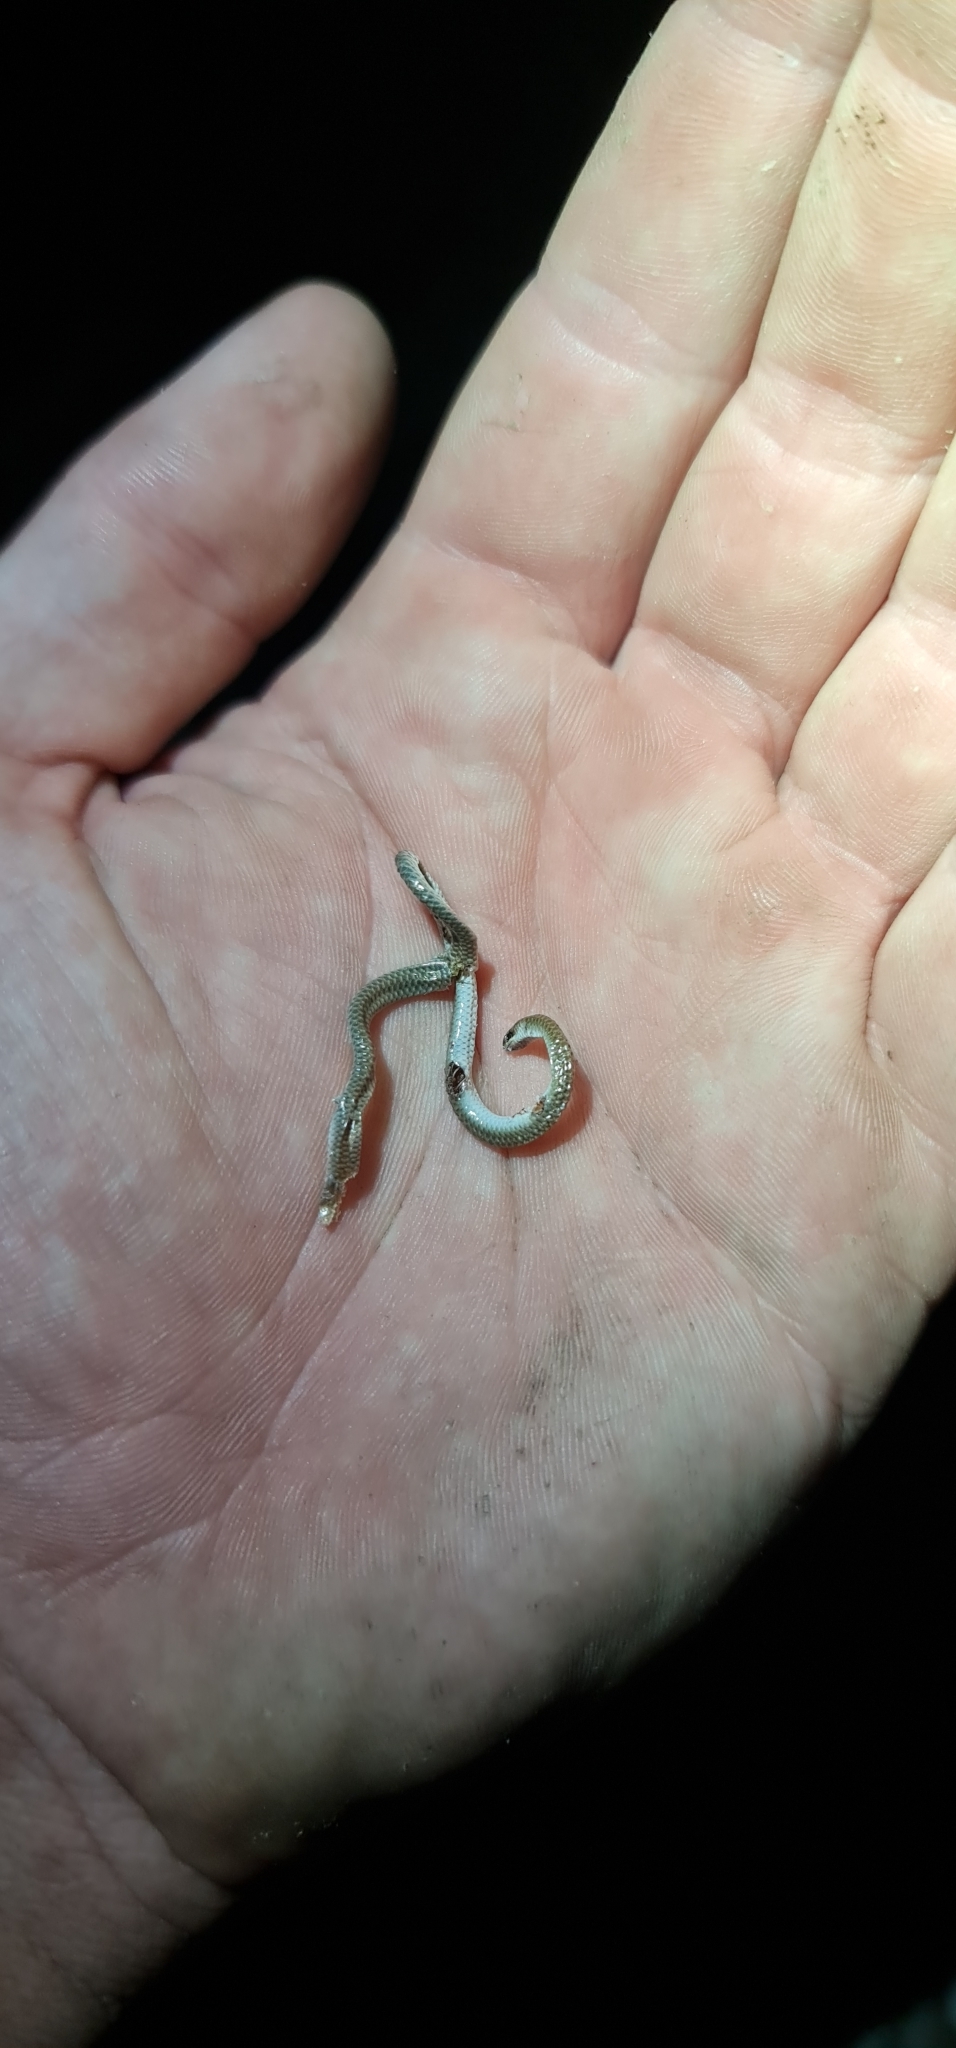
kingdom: Animalia
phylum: Chordata
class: Squamata
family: Pygopodidae
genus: Aprasia
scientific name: Aprasia inaurita
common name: Mallee worm-lizard
